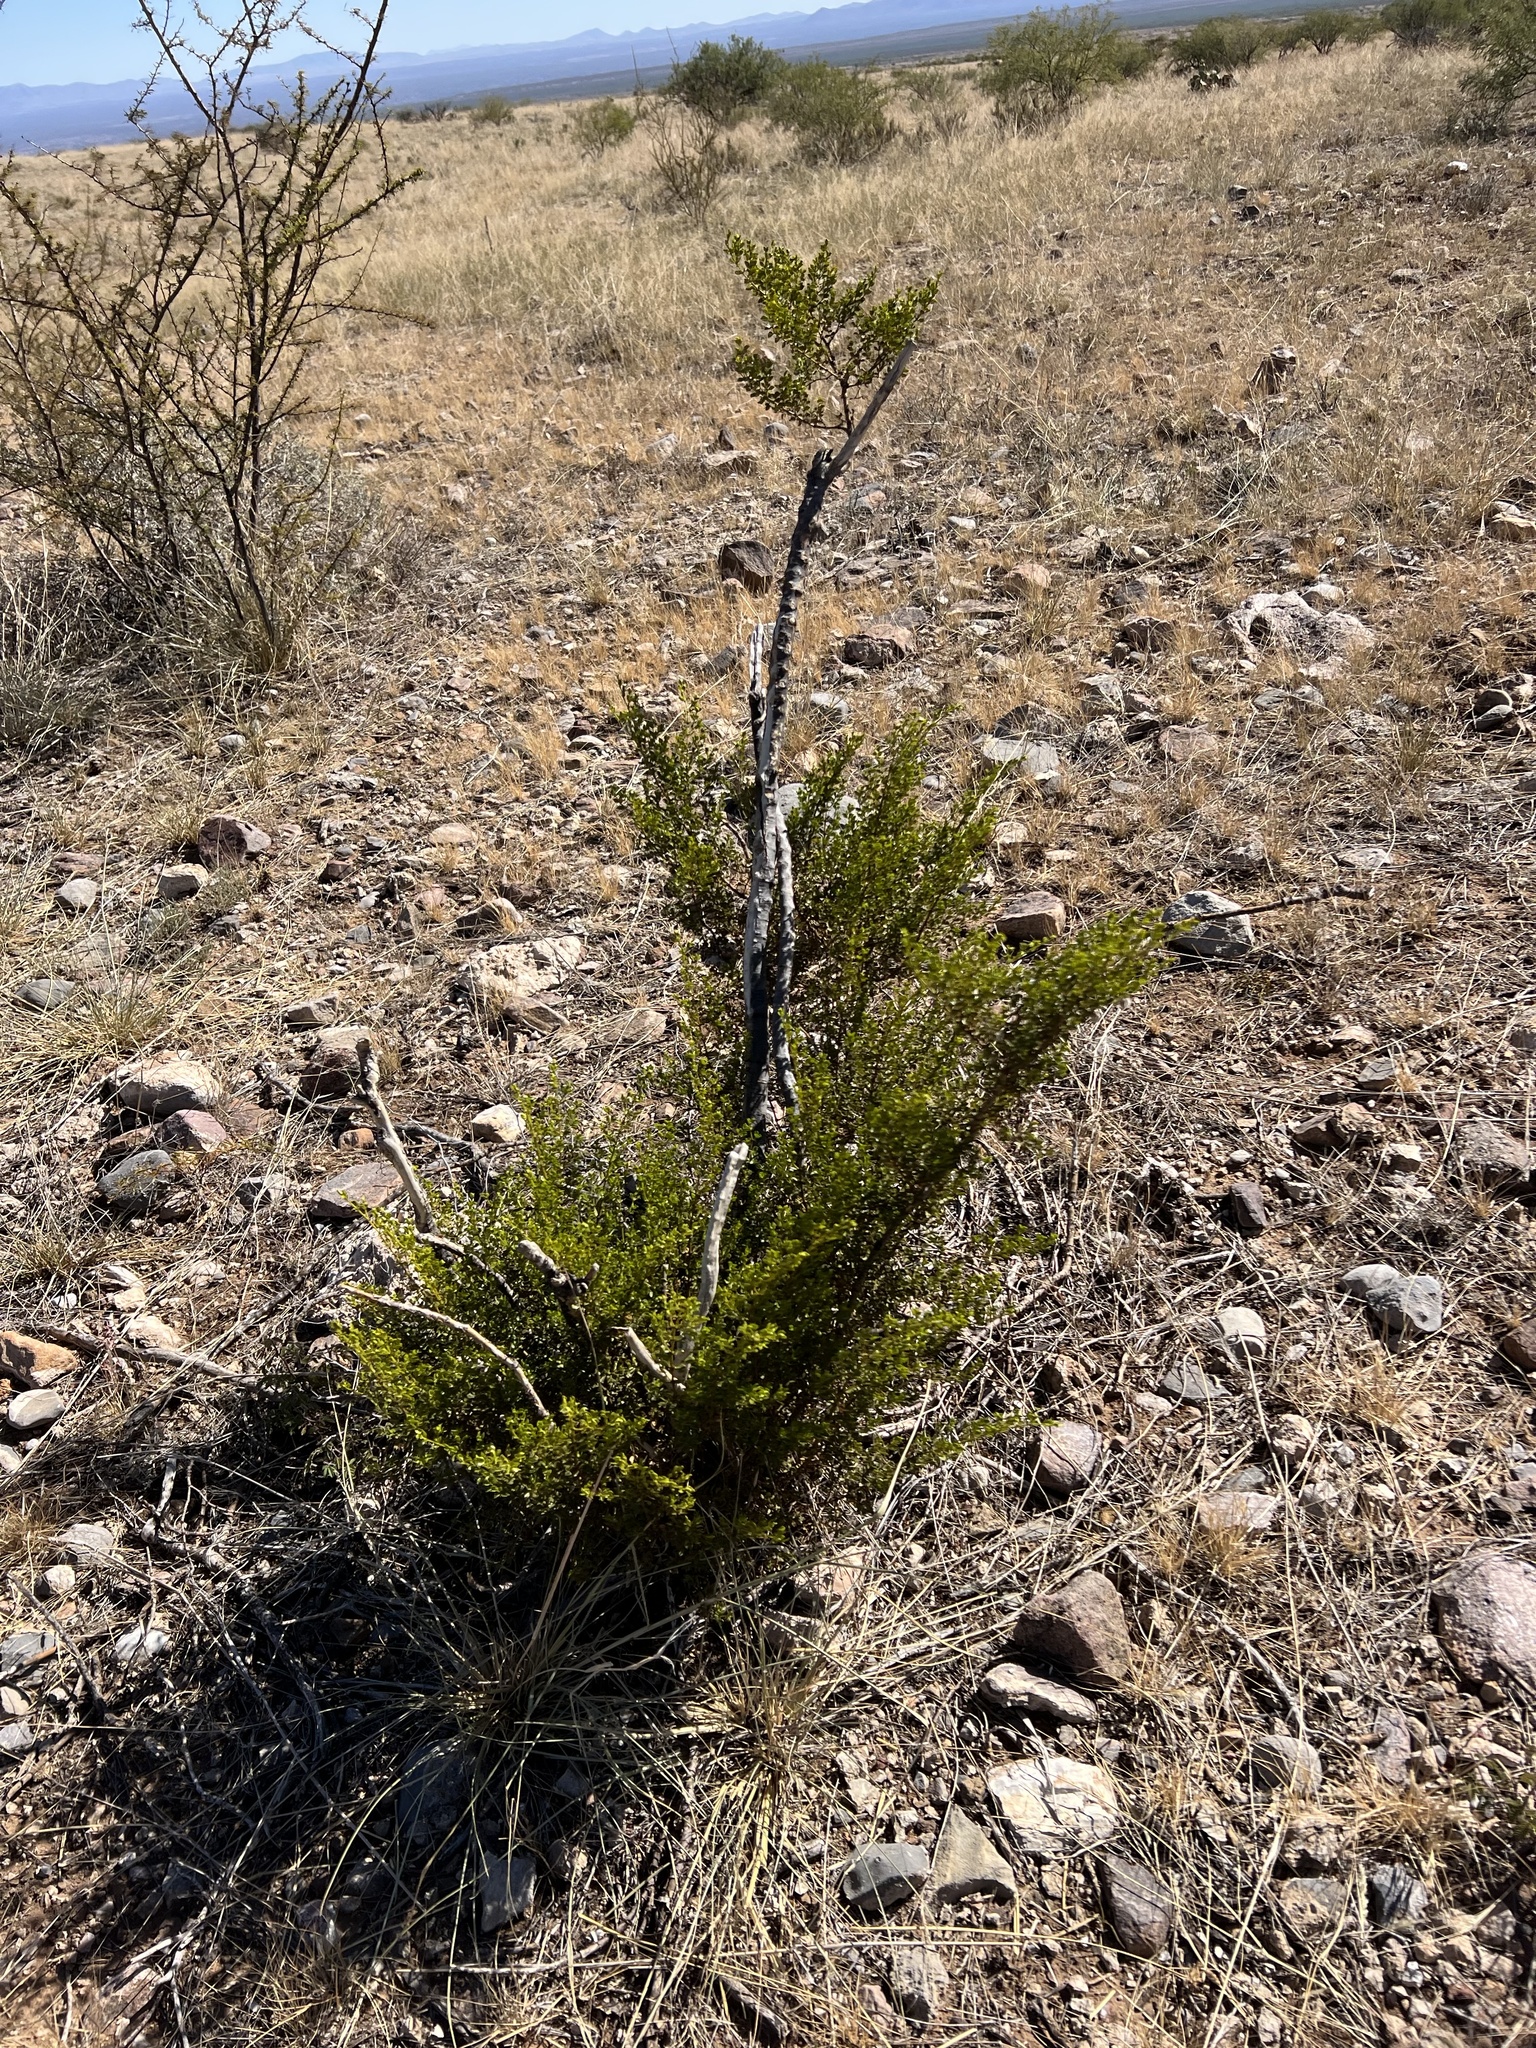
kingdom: Plantae
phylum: Tracheophyta
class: Magnoliopsida
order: Zygophyllales
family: Zygophyllaceae
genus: Larrea
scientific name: Larrea tridentata
